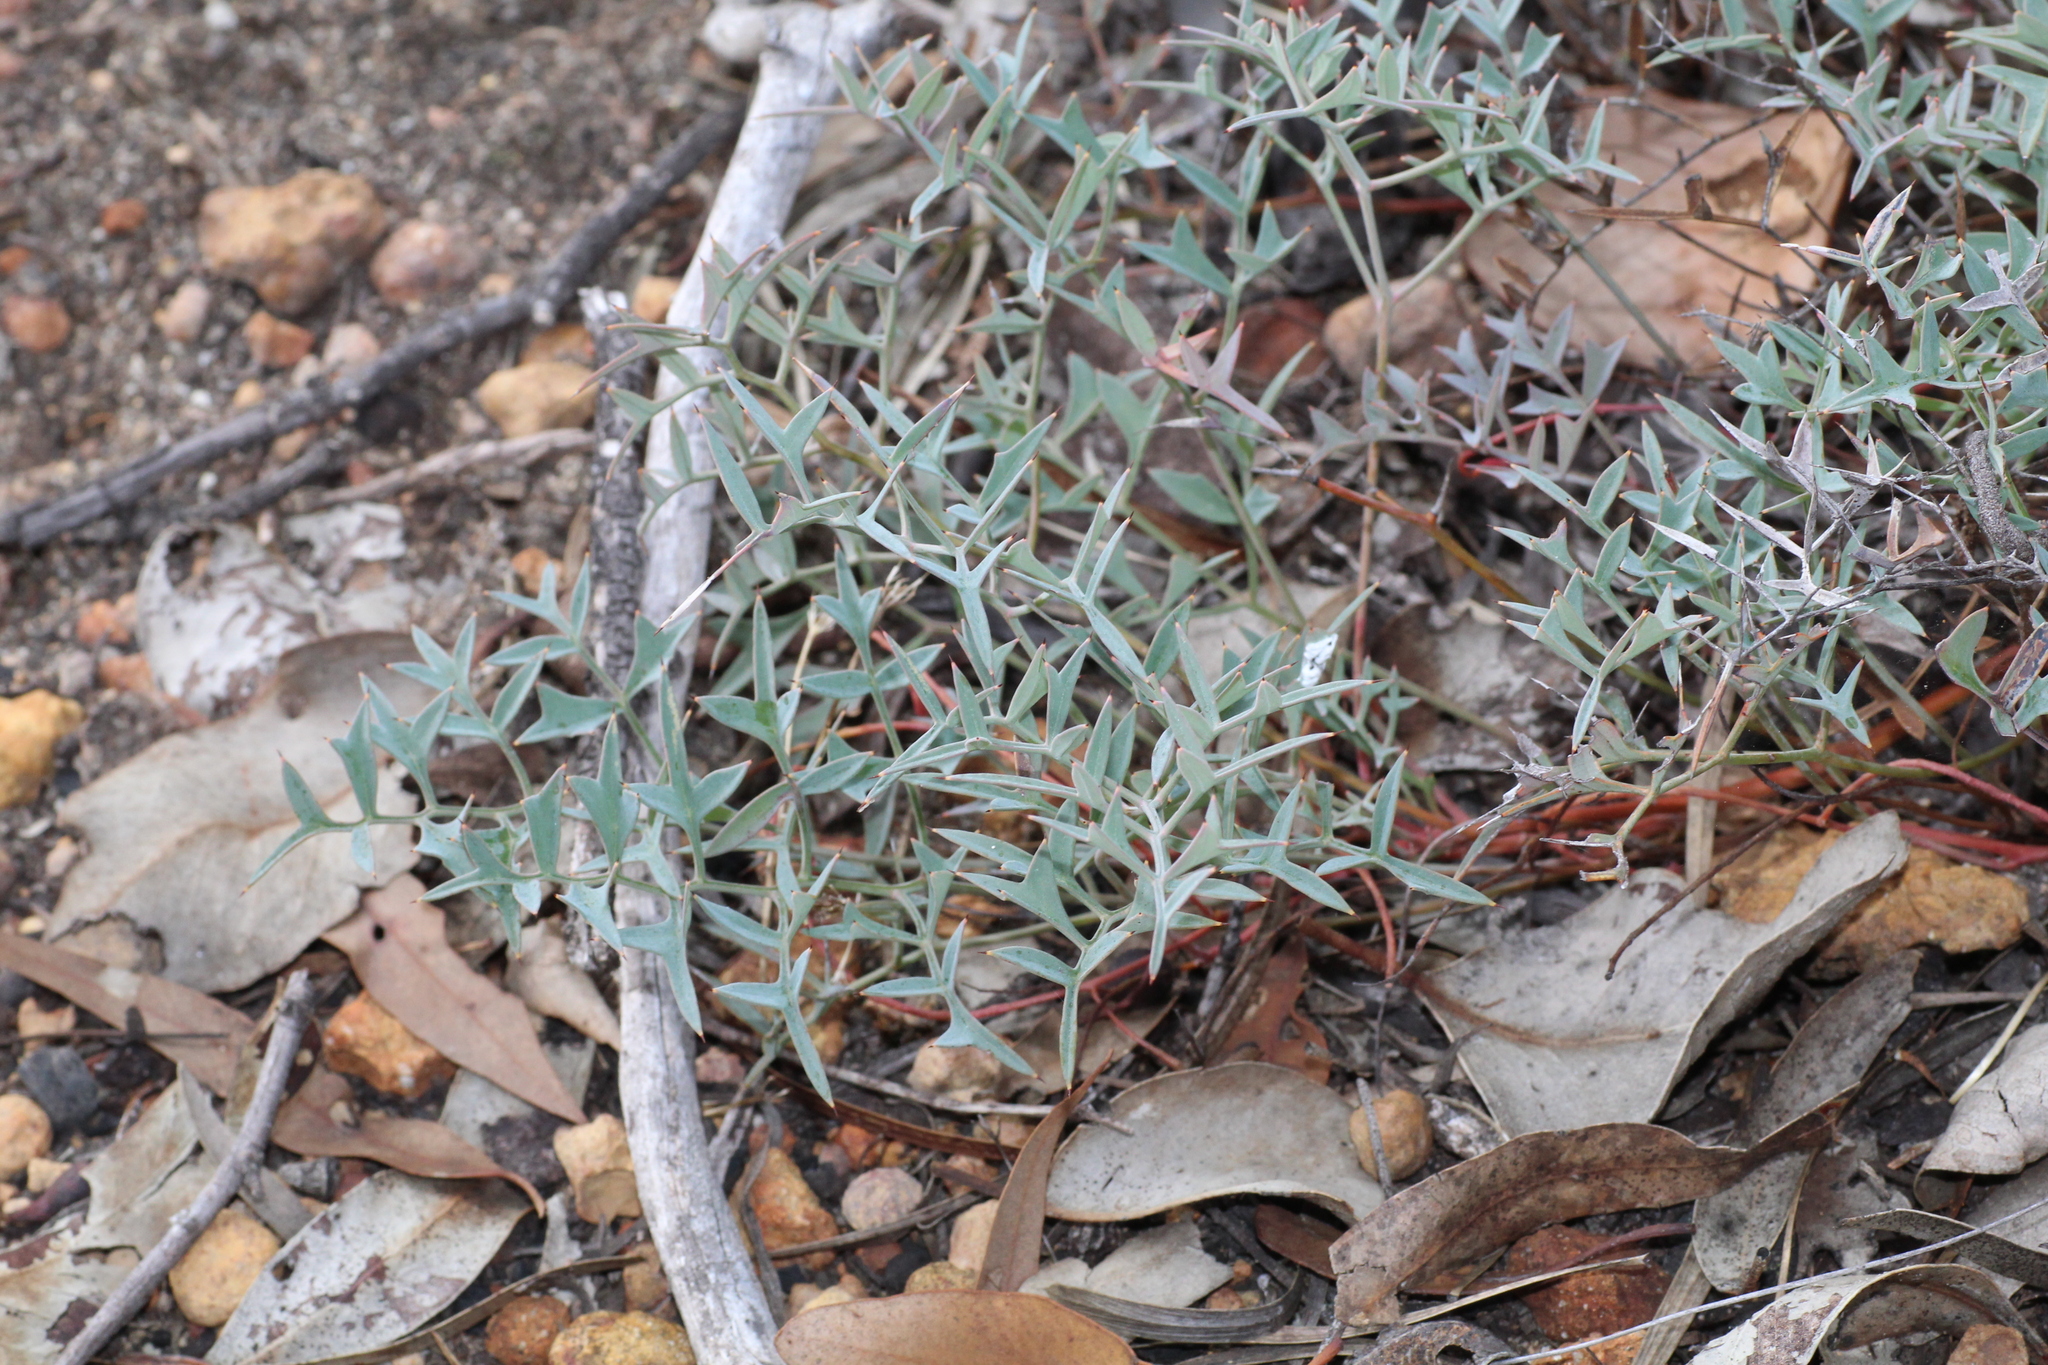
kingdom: Plantae
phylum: Tracheophyta
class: Magnoliopsida
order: Proteales
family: Proteaceae
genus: Grevillea
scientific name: Grevillea leptobotrys
